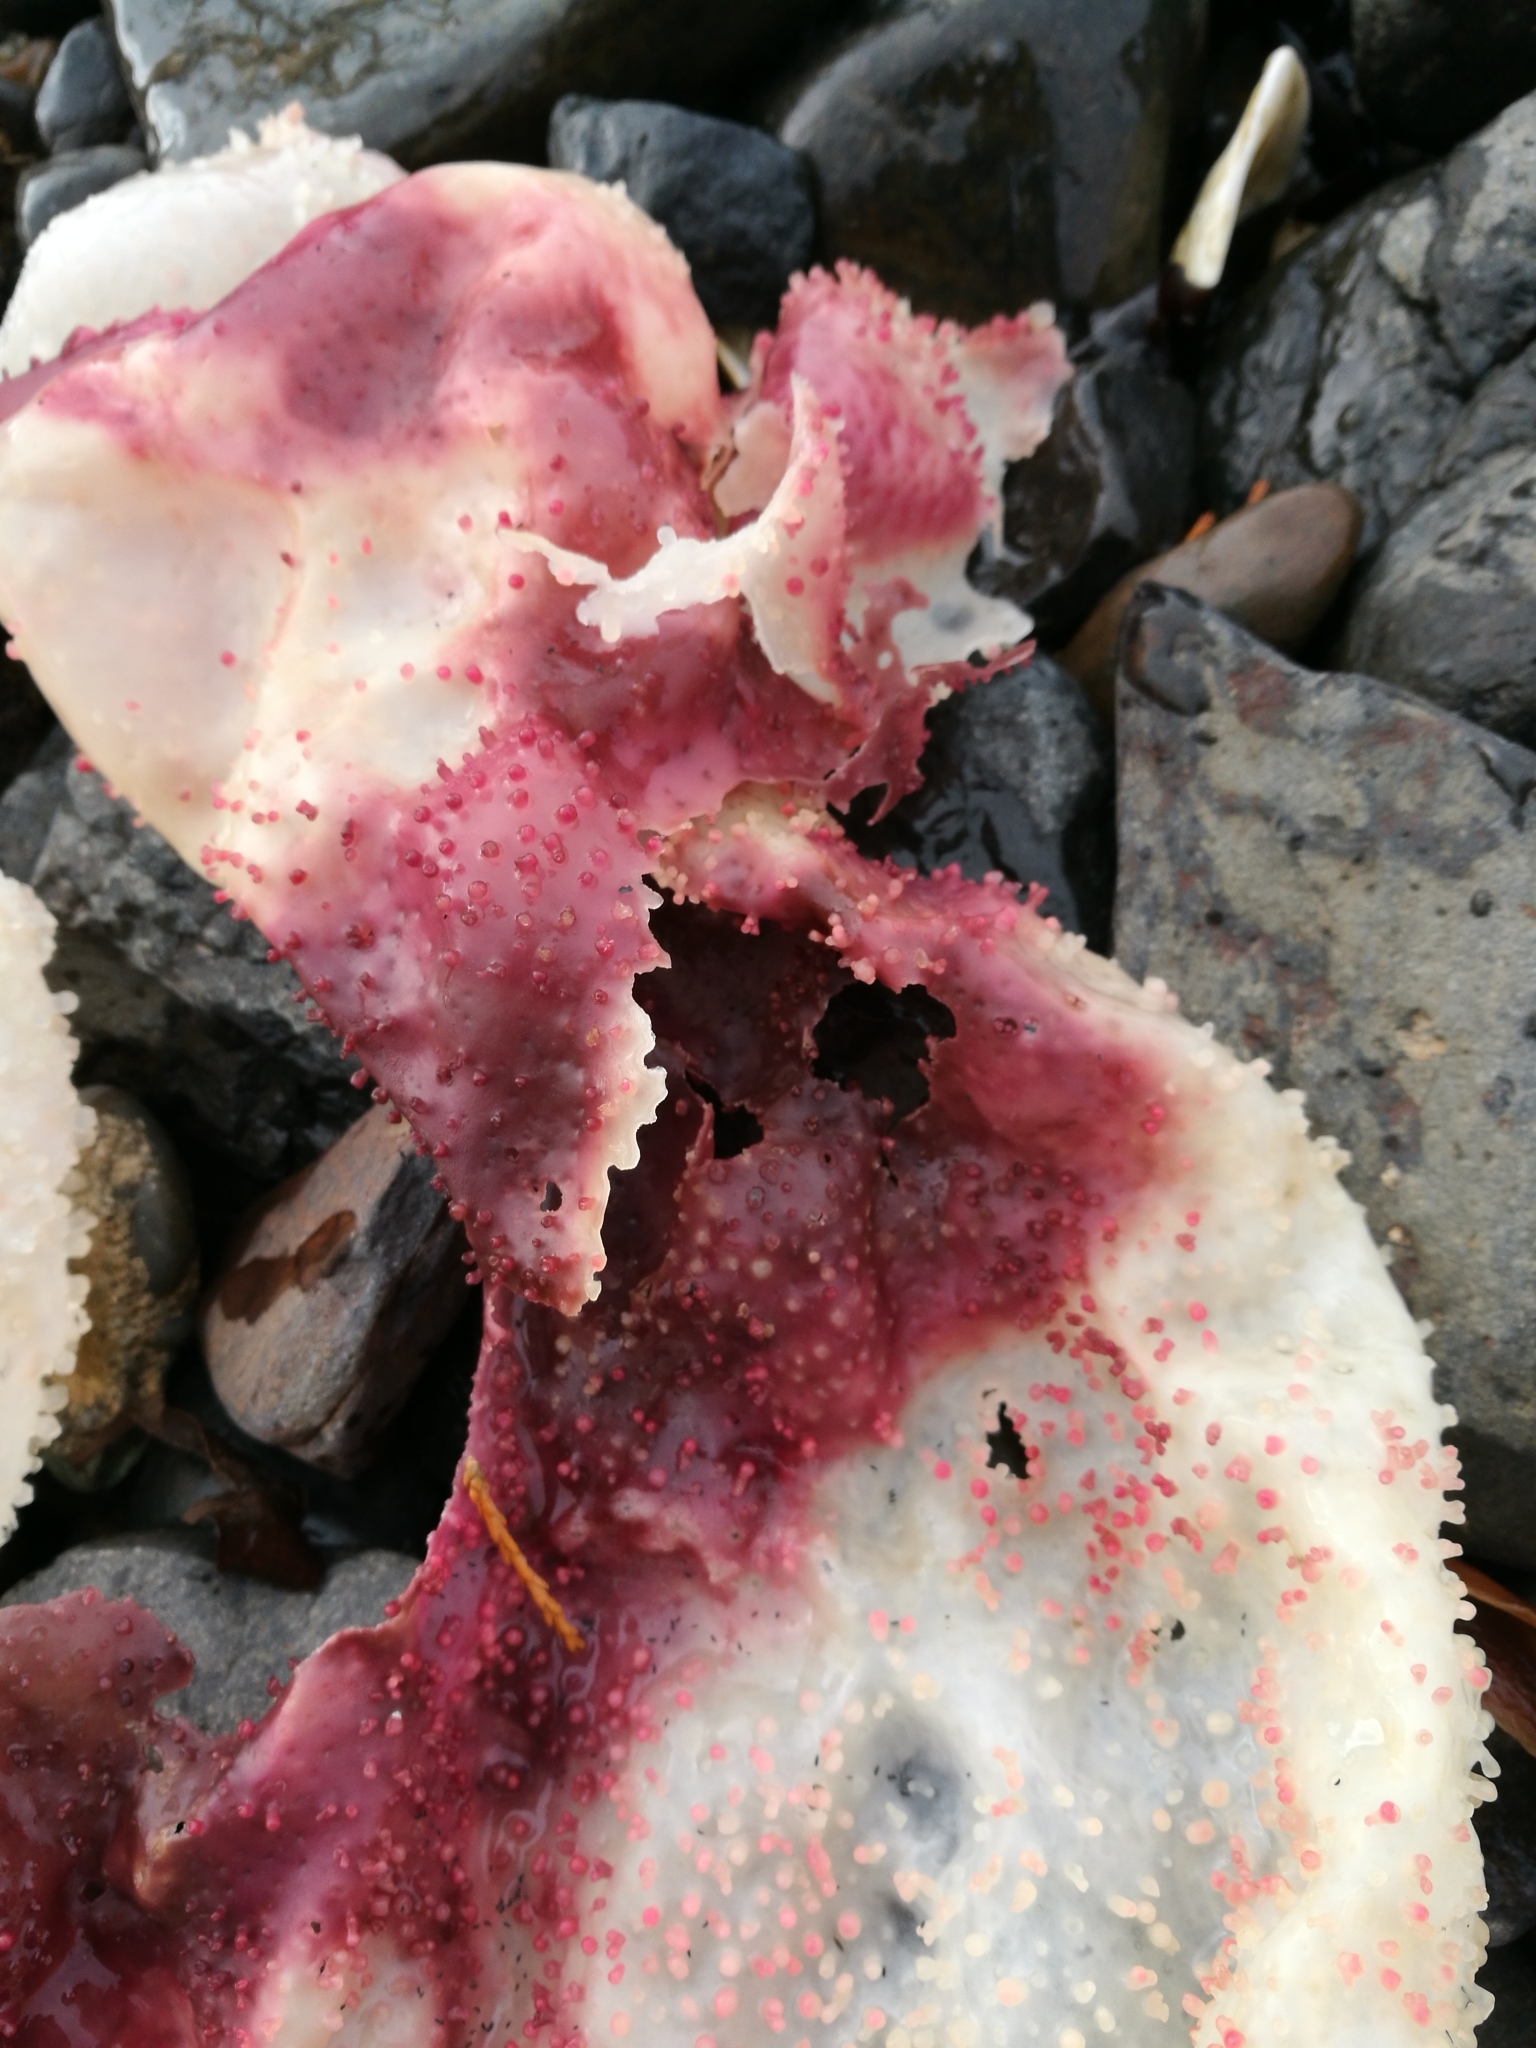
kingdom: Plantae
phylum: Rhodophyta
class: Florideophyceae
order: Gigartinales
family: Gigartinaceae
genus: Sarcothalia
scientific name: Sarcothalia circumcincta
